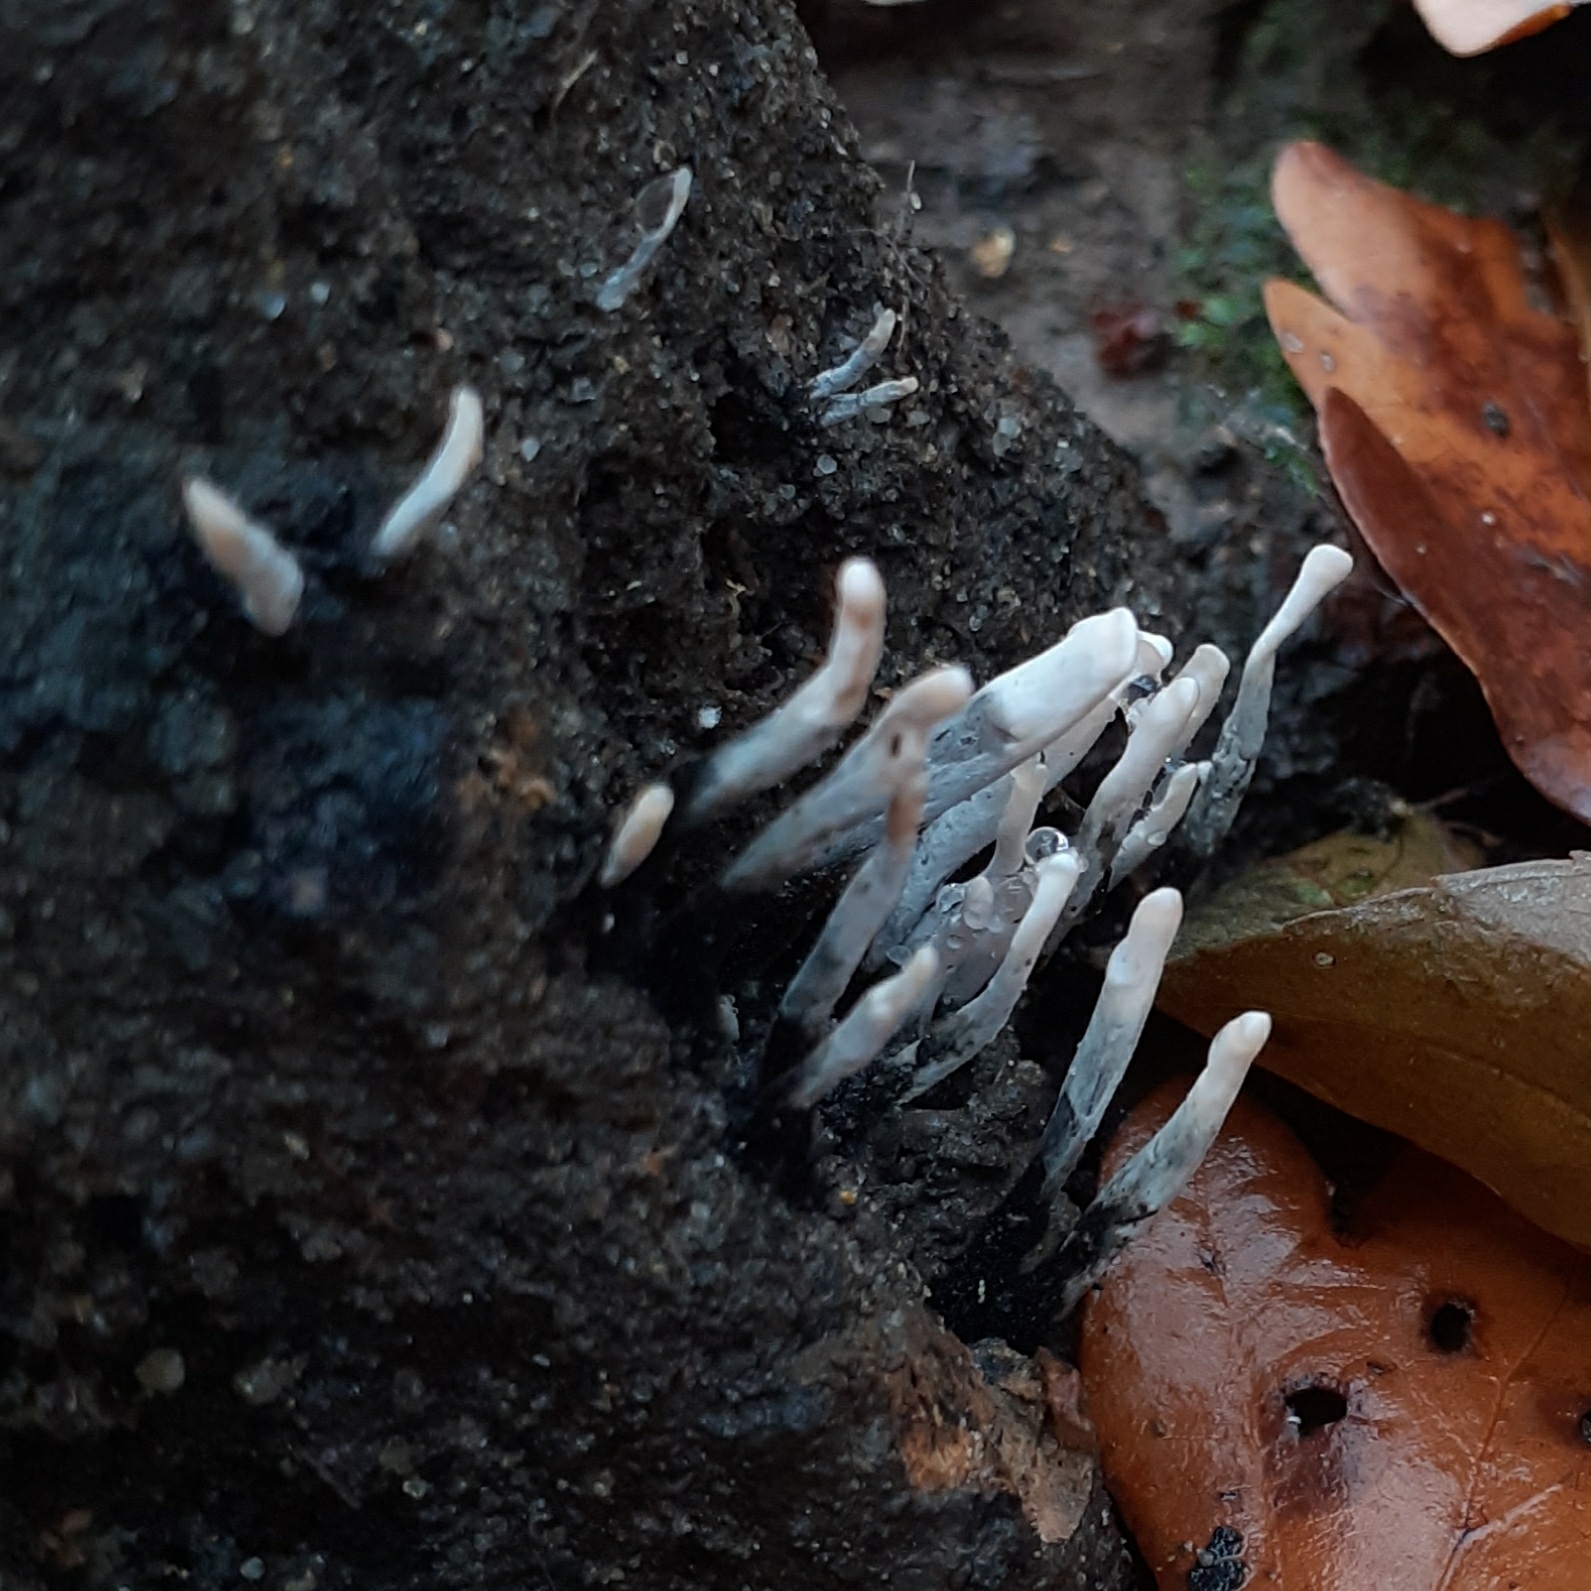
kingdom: Fungi
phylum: Ascomycota
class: Sordariomycetes
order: Xylariales
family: Xylariaceae
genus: Xylaria
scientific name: Xylaria hypoxylon
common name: Candle-snuff fungus
